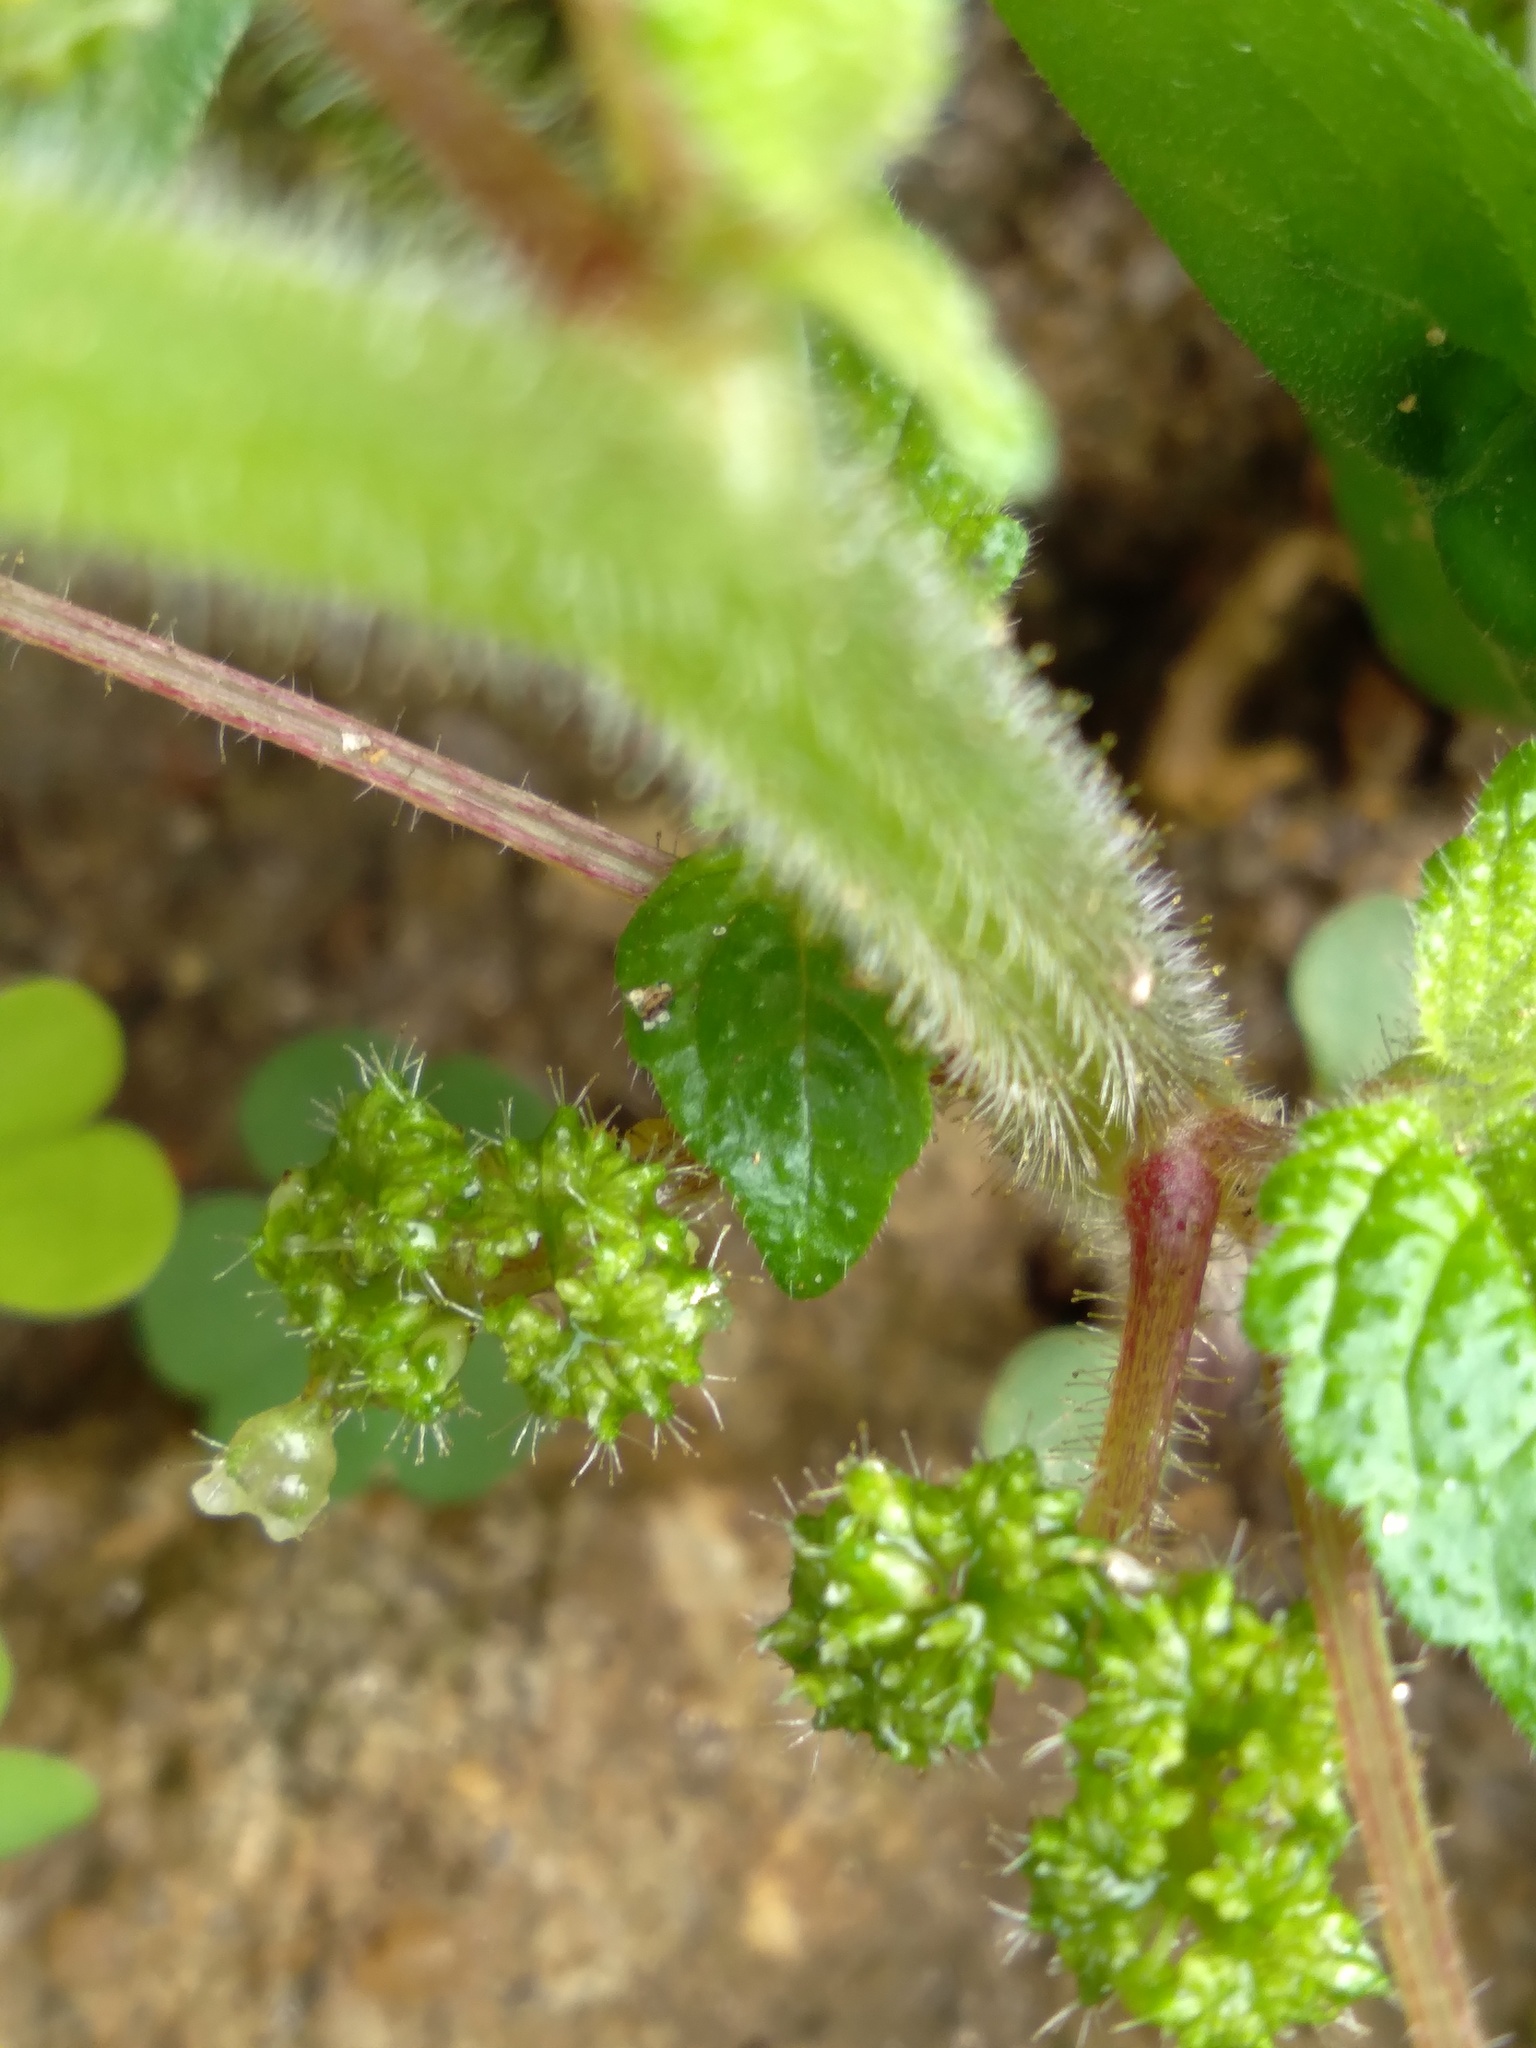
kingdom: Plantae
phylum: Tracheophyta
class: Magnoliopsida
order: Rosales
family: Urticaceae
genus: Laportea
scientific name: Laportea aestuans
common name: West indian woodnettle
